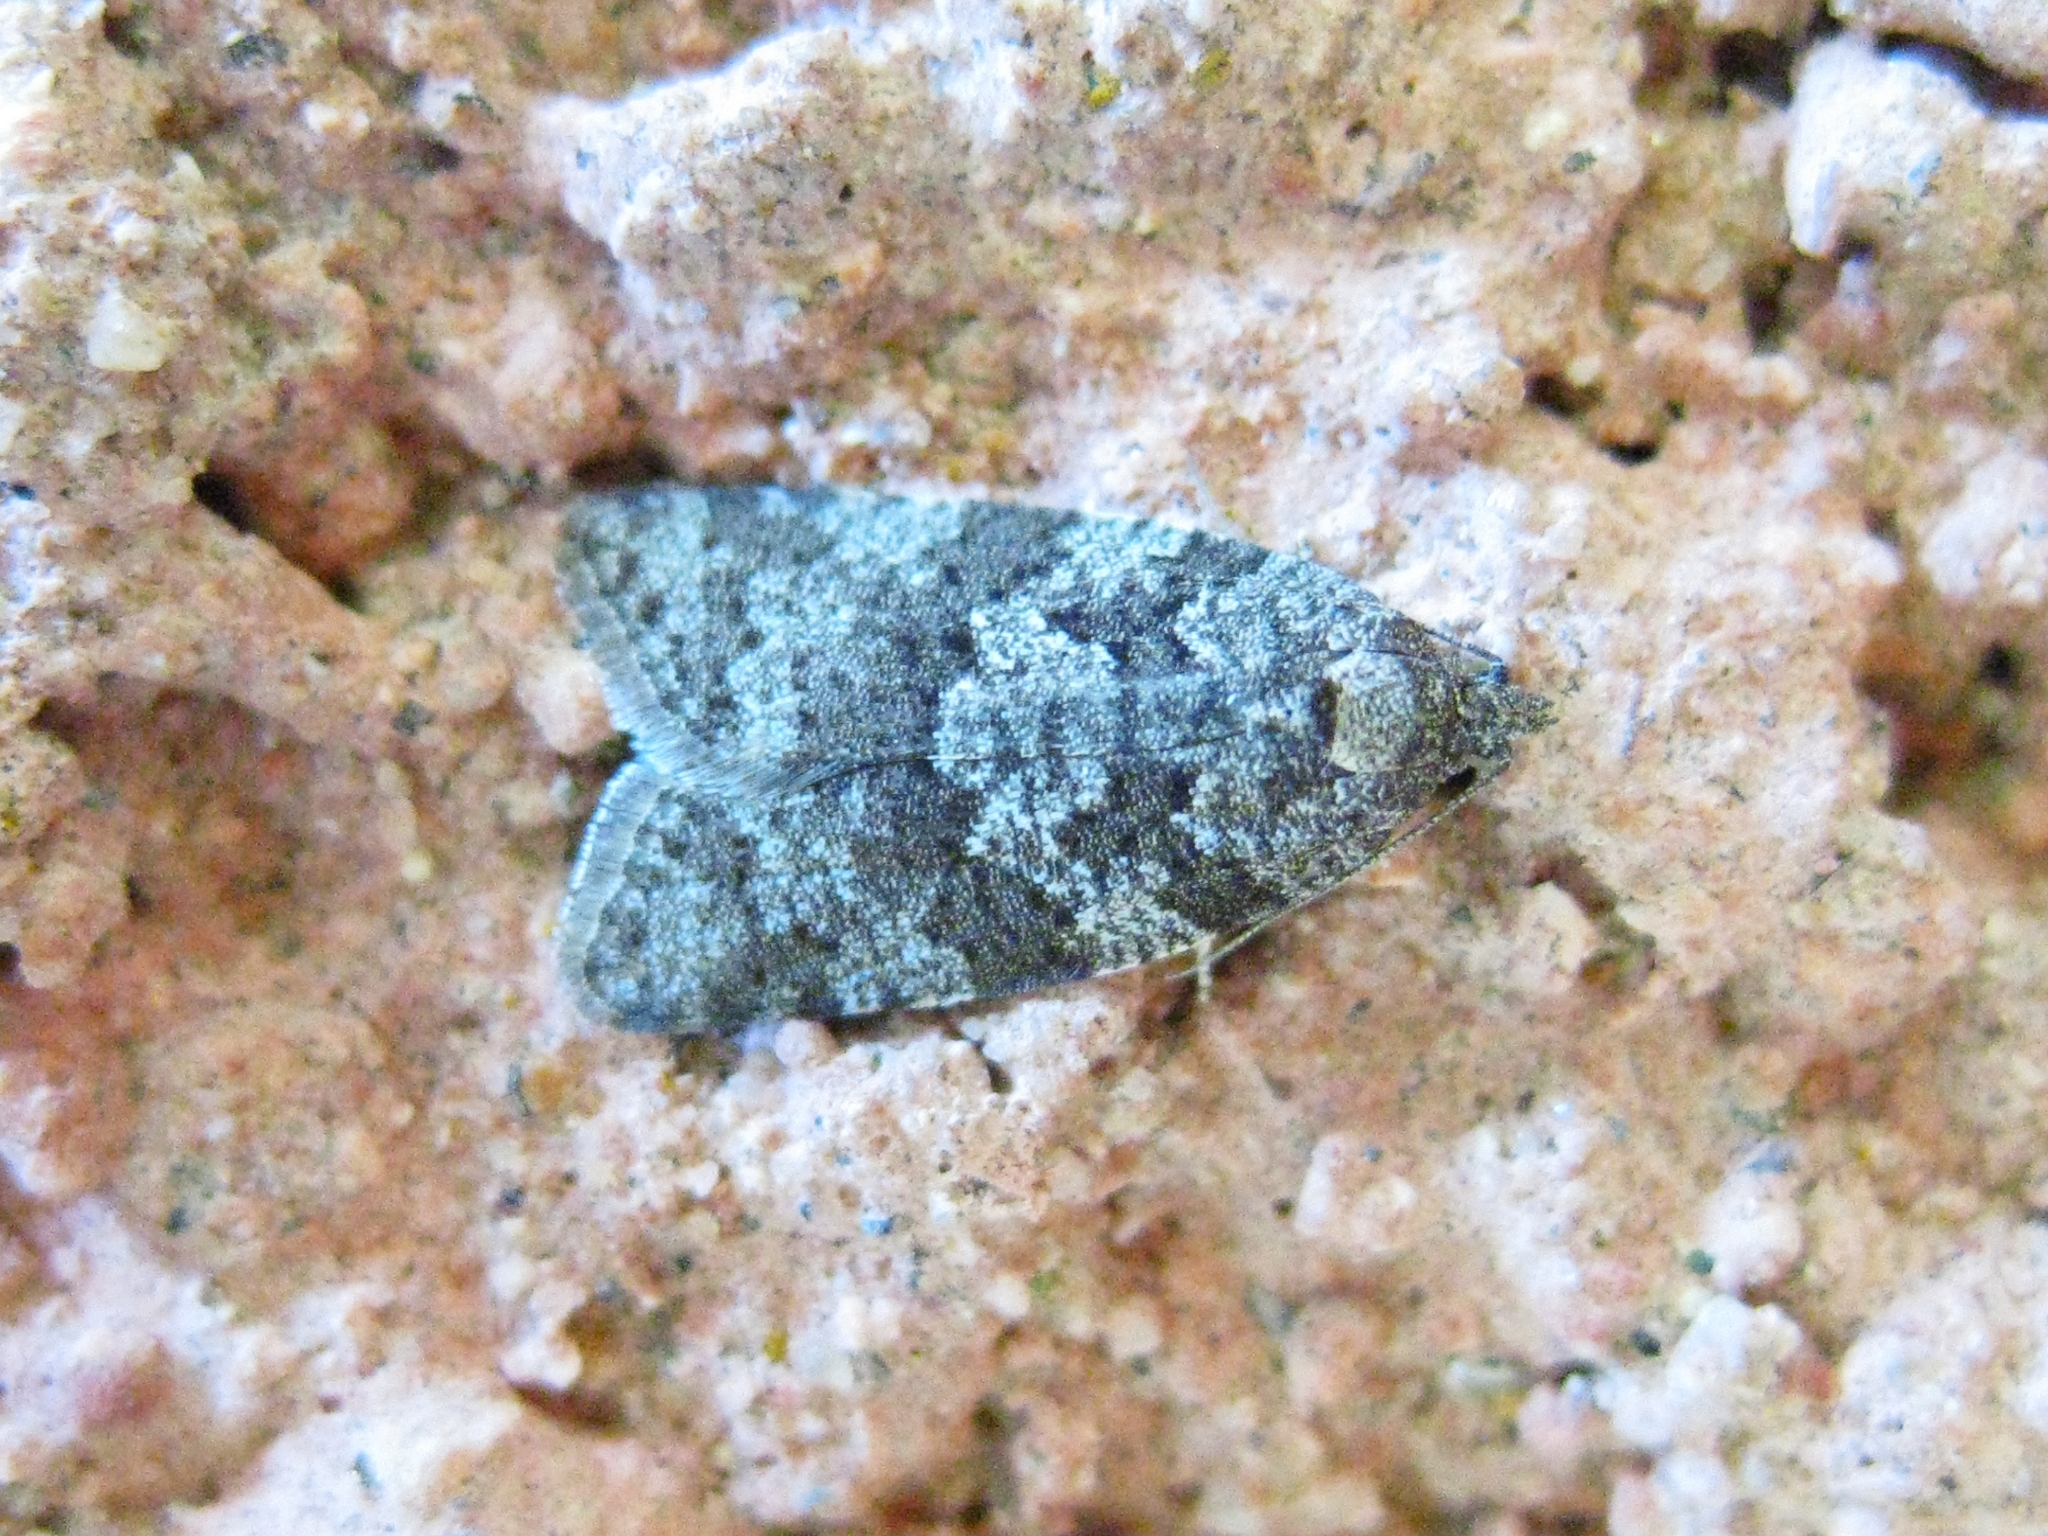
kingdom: Animalia
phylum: Arthropoda
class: Insecta
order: Lepidoptera
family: Tortricidae
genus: Cnephasia
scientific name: Cnephasia
